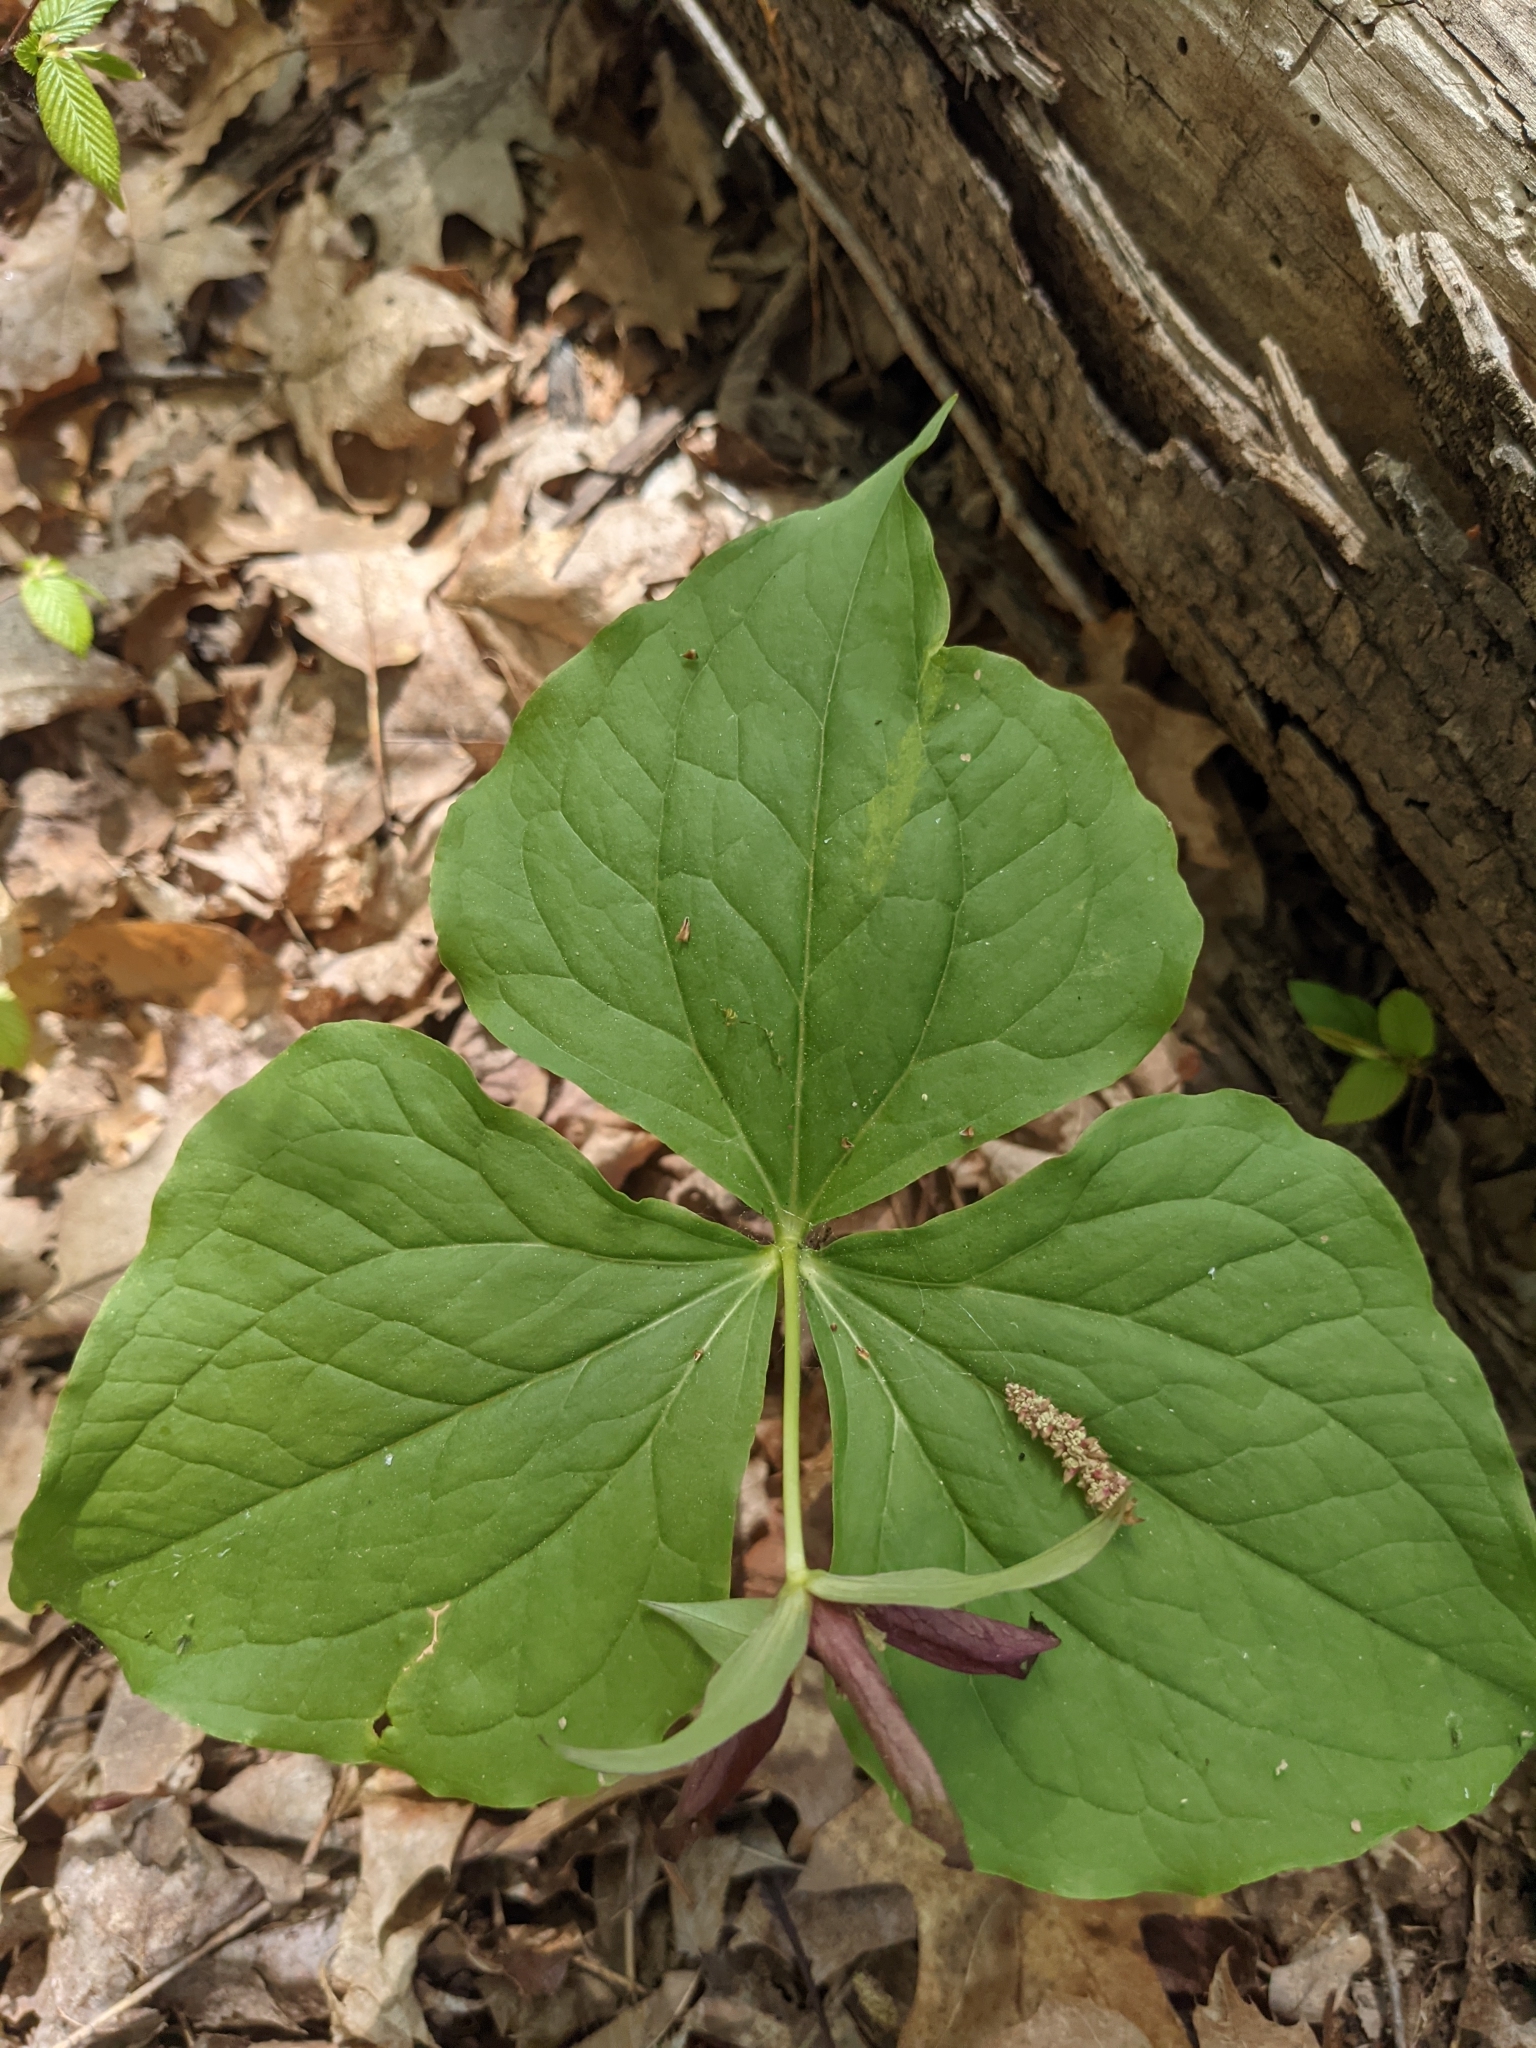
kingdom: Plantae
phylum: Tracheophyta
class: Liliopsida
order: Liliales
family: Melanthiaceae
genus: Trillium
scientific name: Trillium erectum
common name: Purple trillium
